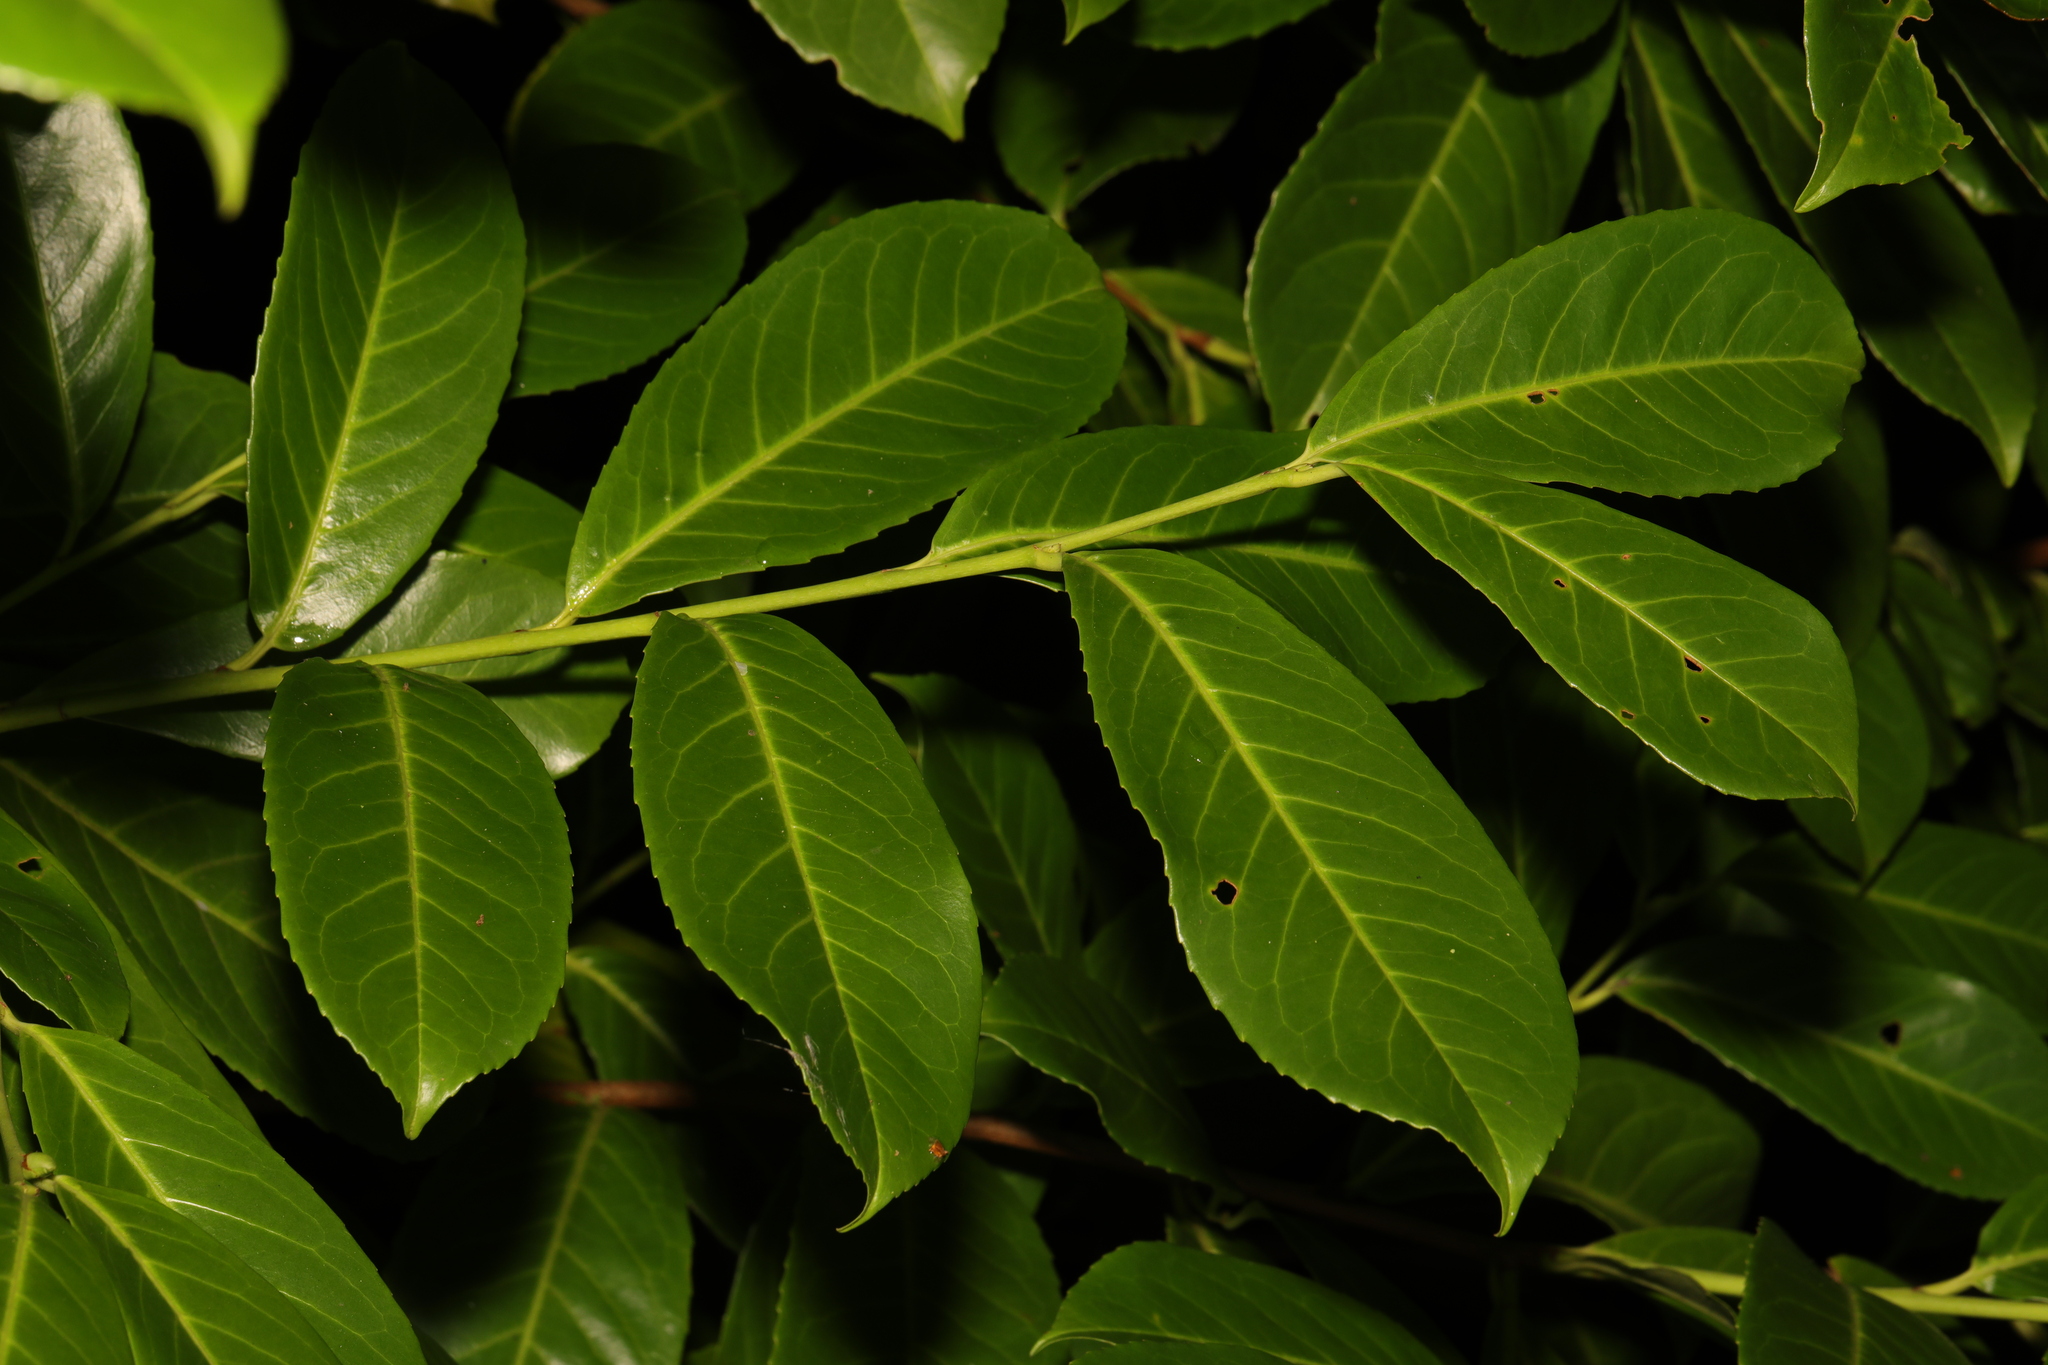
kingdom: Plantae
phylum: Tracheophyta
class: Magnoliopsida
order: Rosales
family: Rosaceae
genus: Prunus
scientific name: Prunus laurocerasus
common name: Cherry laurel
